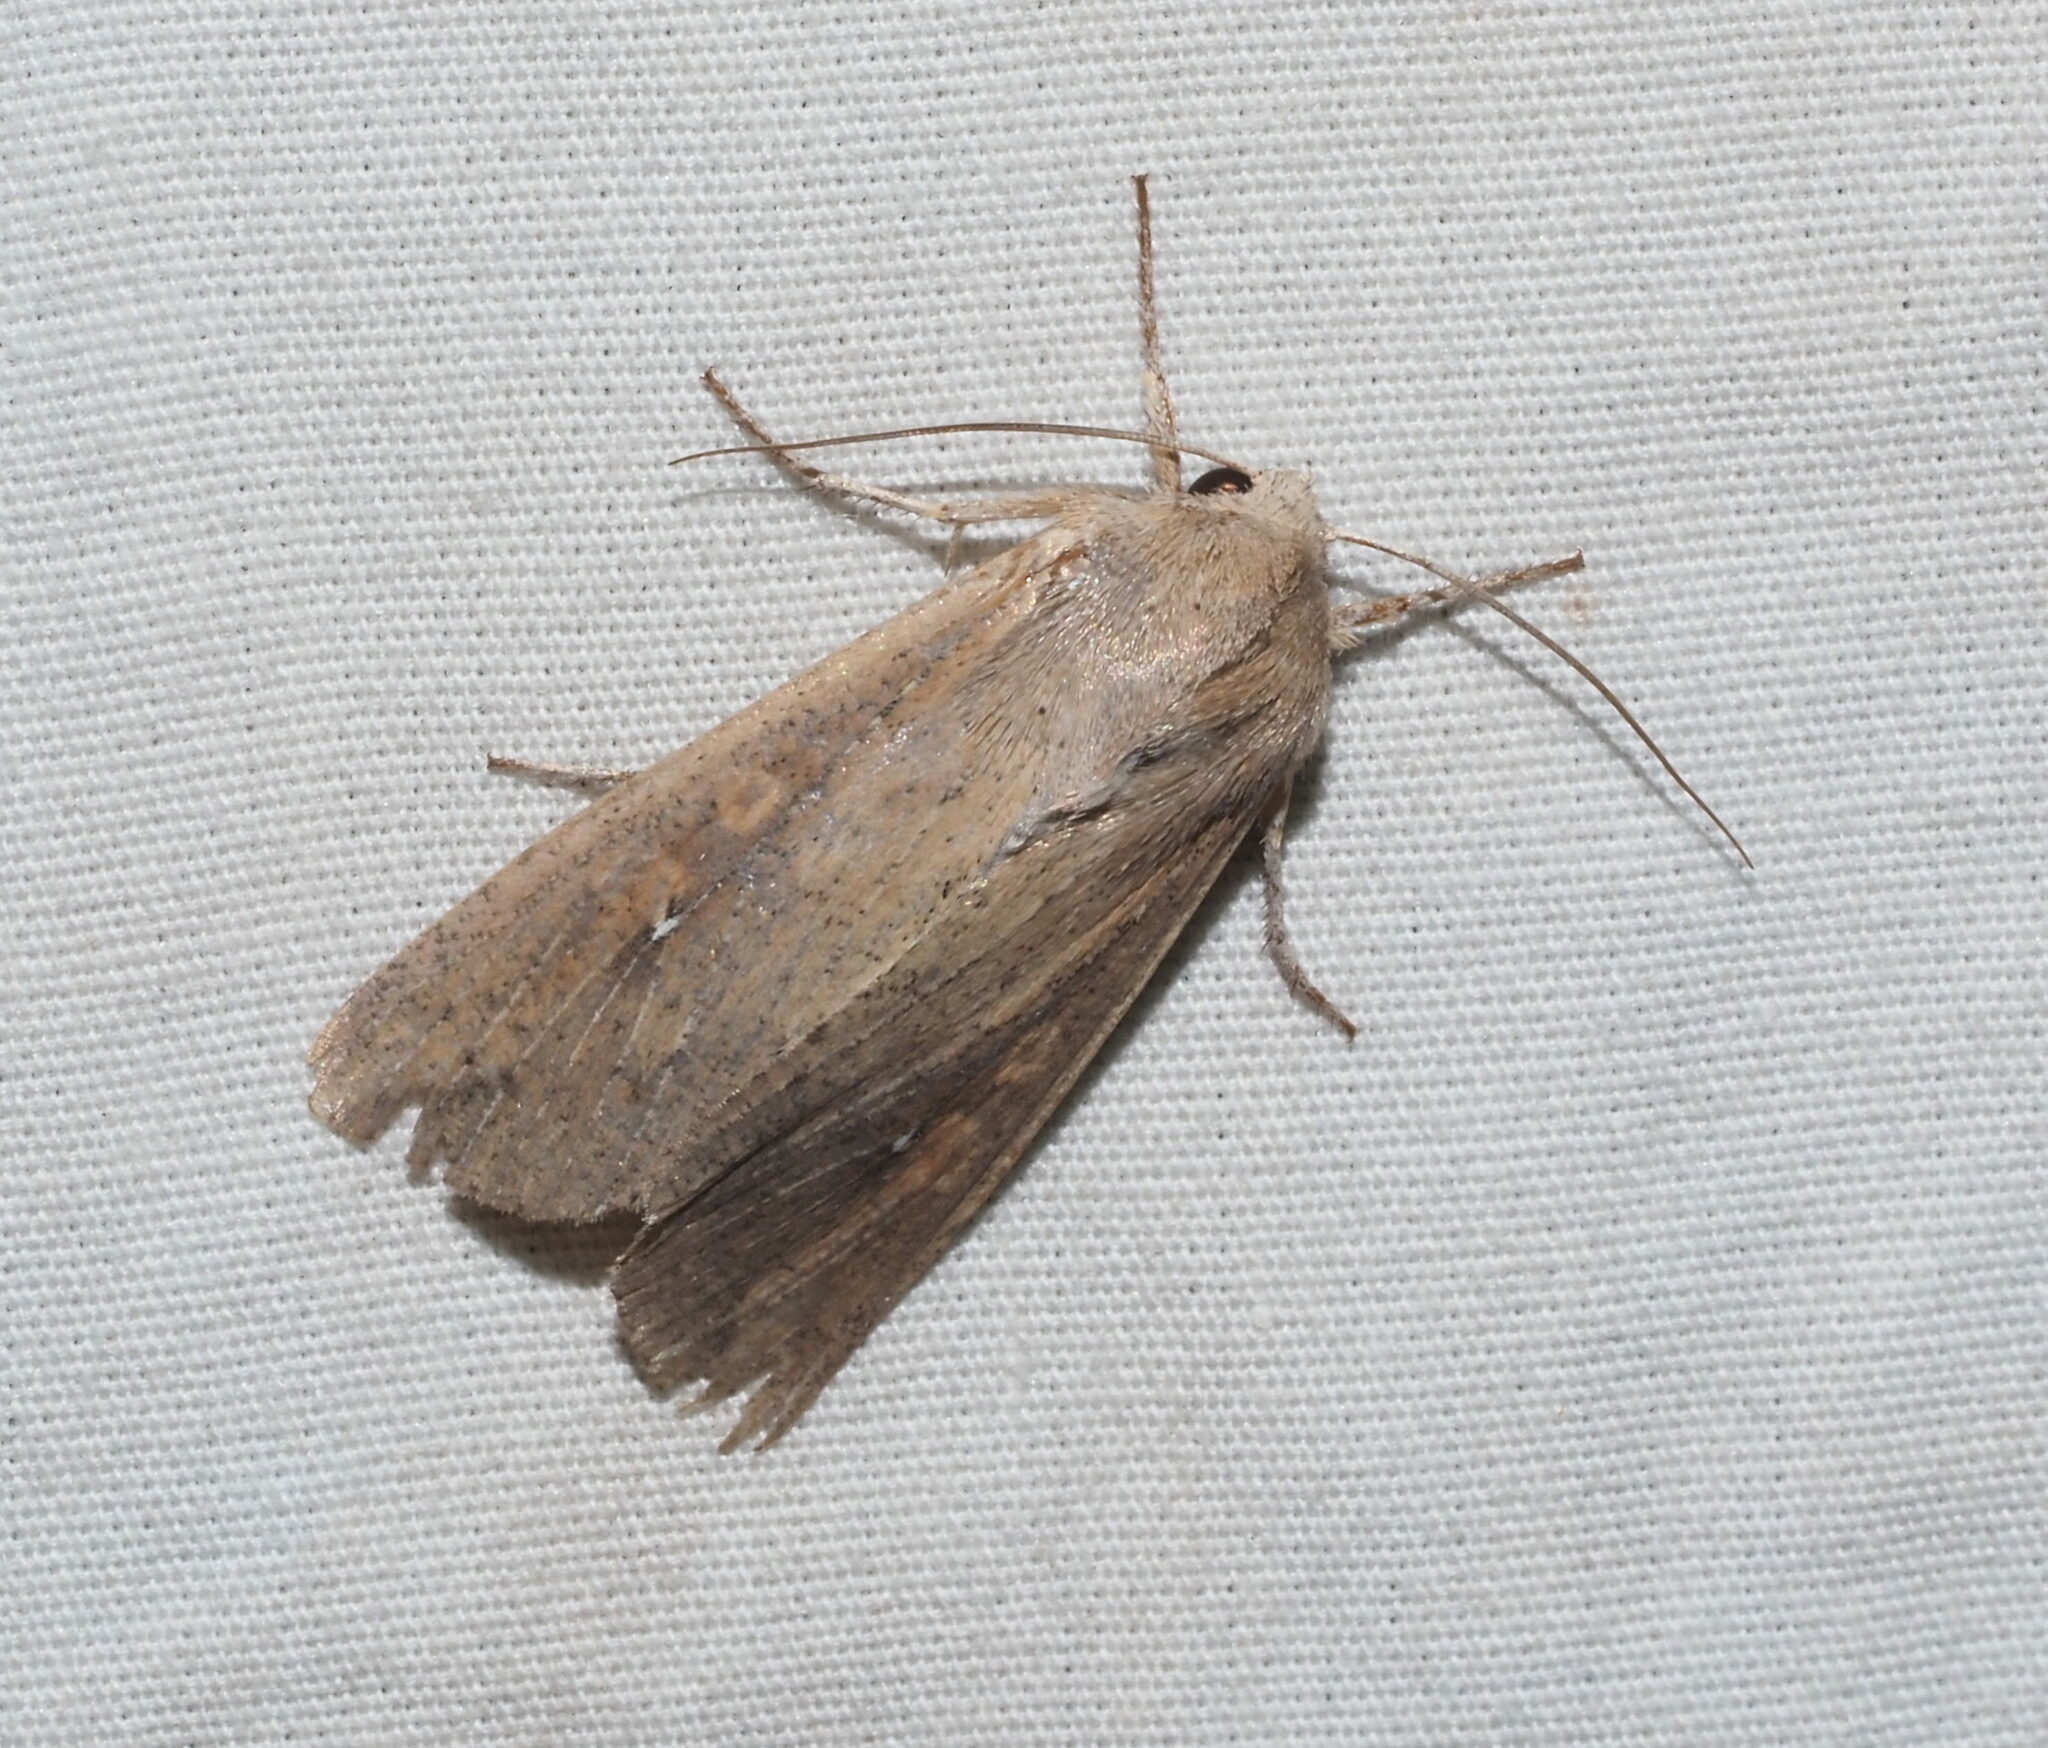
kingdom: Animalia
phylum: Arthropoda
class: Insecta
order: Lepidoptera
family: Noctuidae
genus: Mythimna
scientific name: Mythimna unipuncta
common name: White-speck
